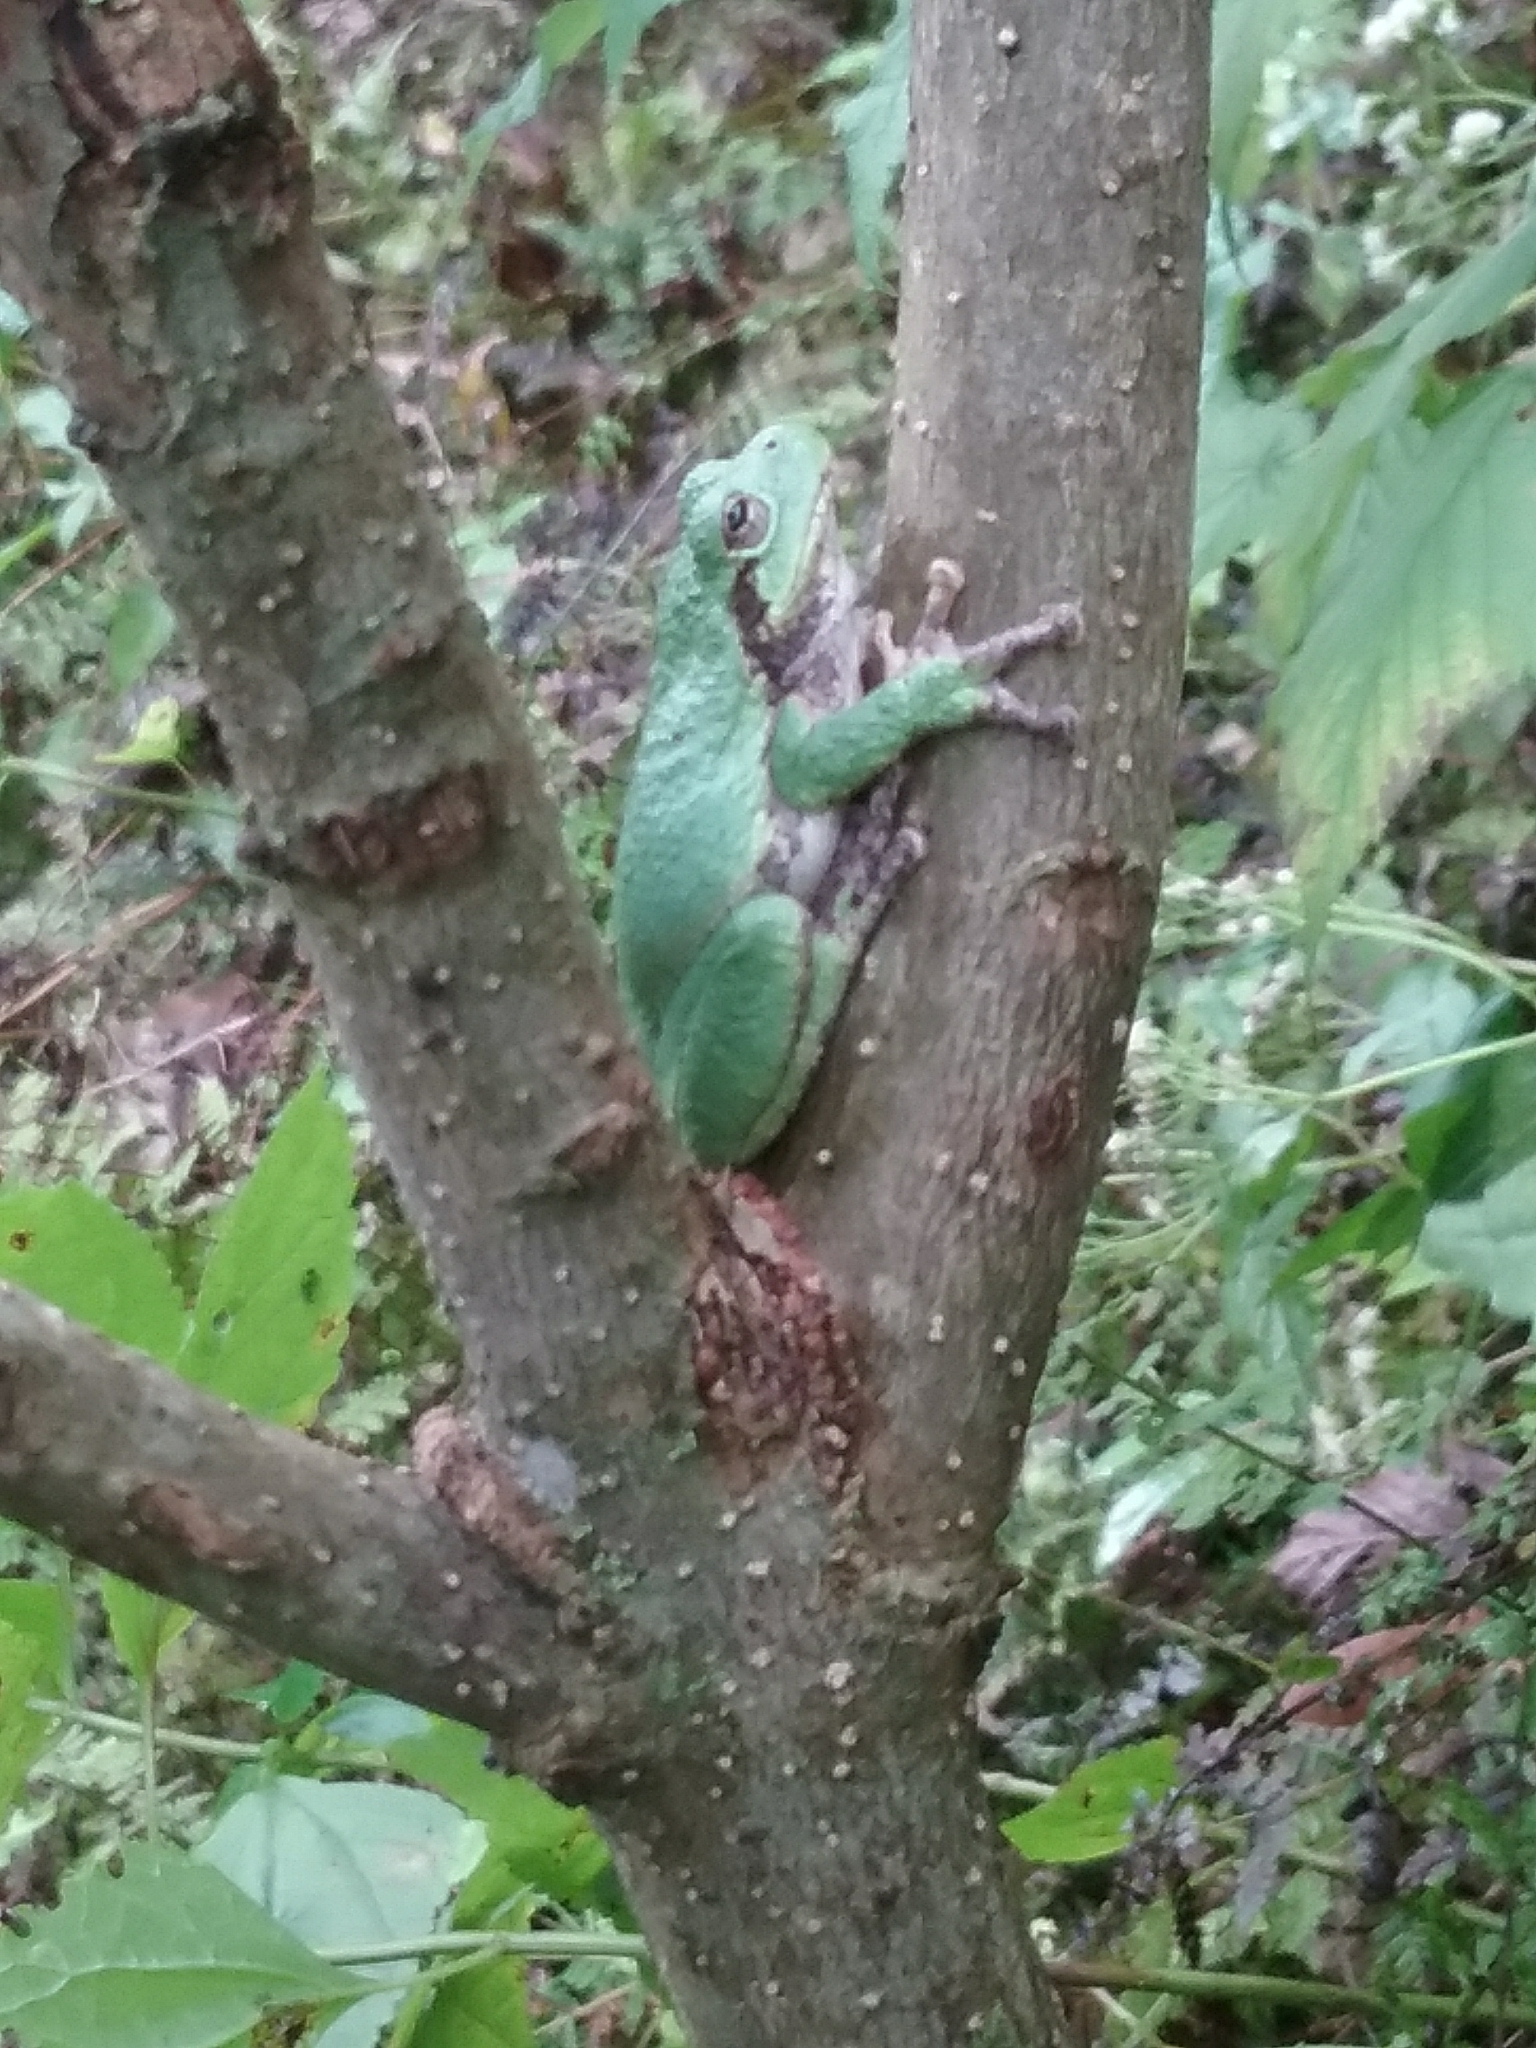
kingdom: Animalia
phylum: Chordata
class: Amphibia
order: Anura
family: Hylidae
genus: Hyla
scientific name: Hyla
